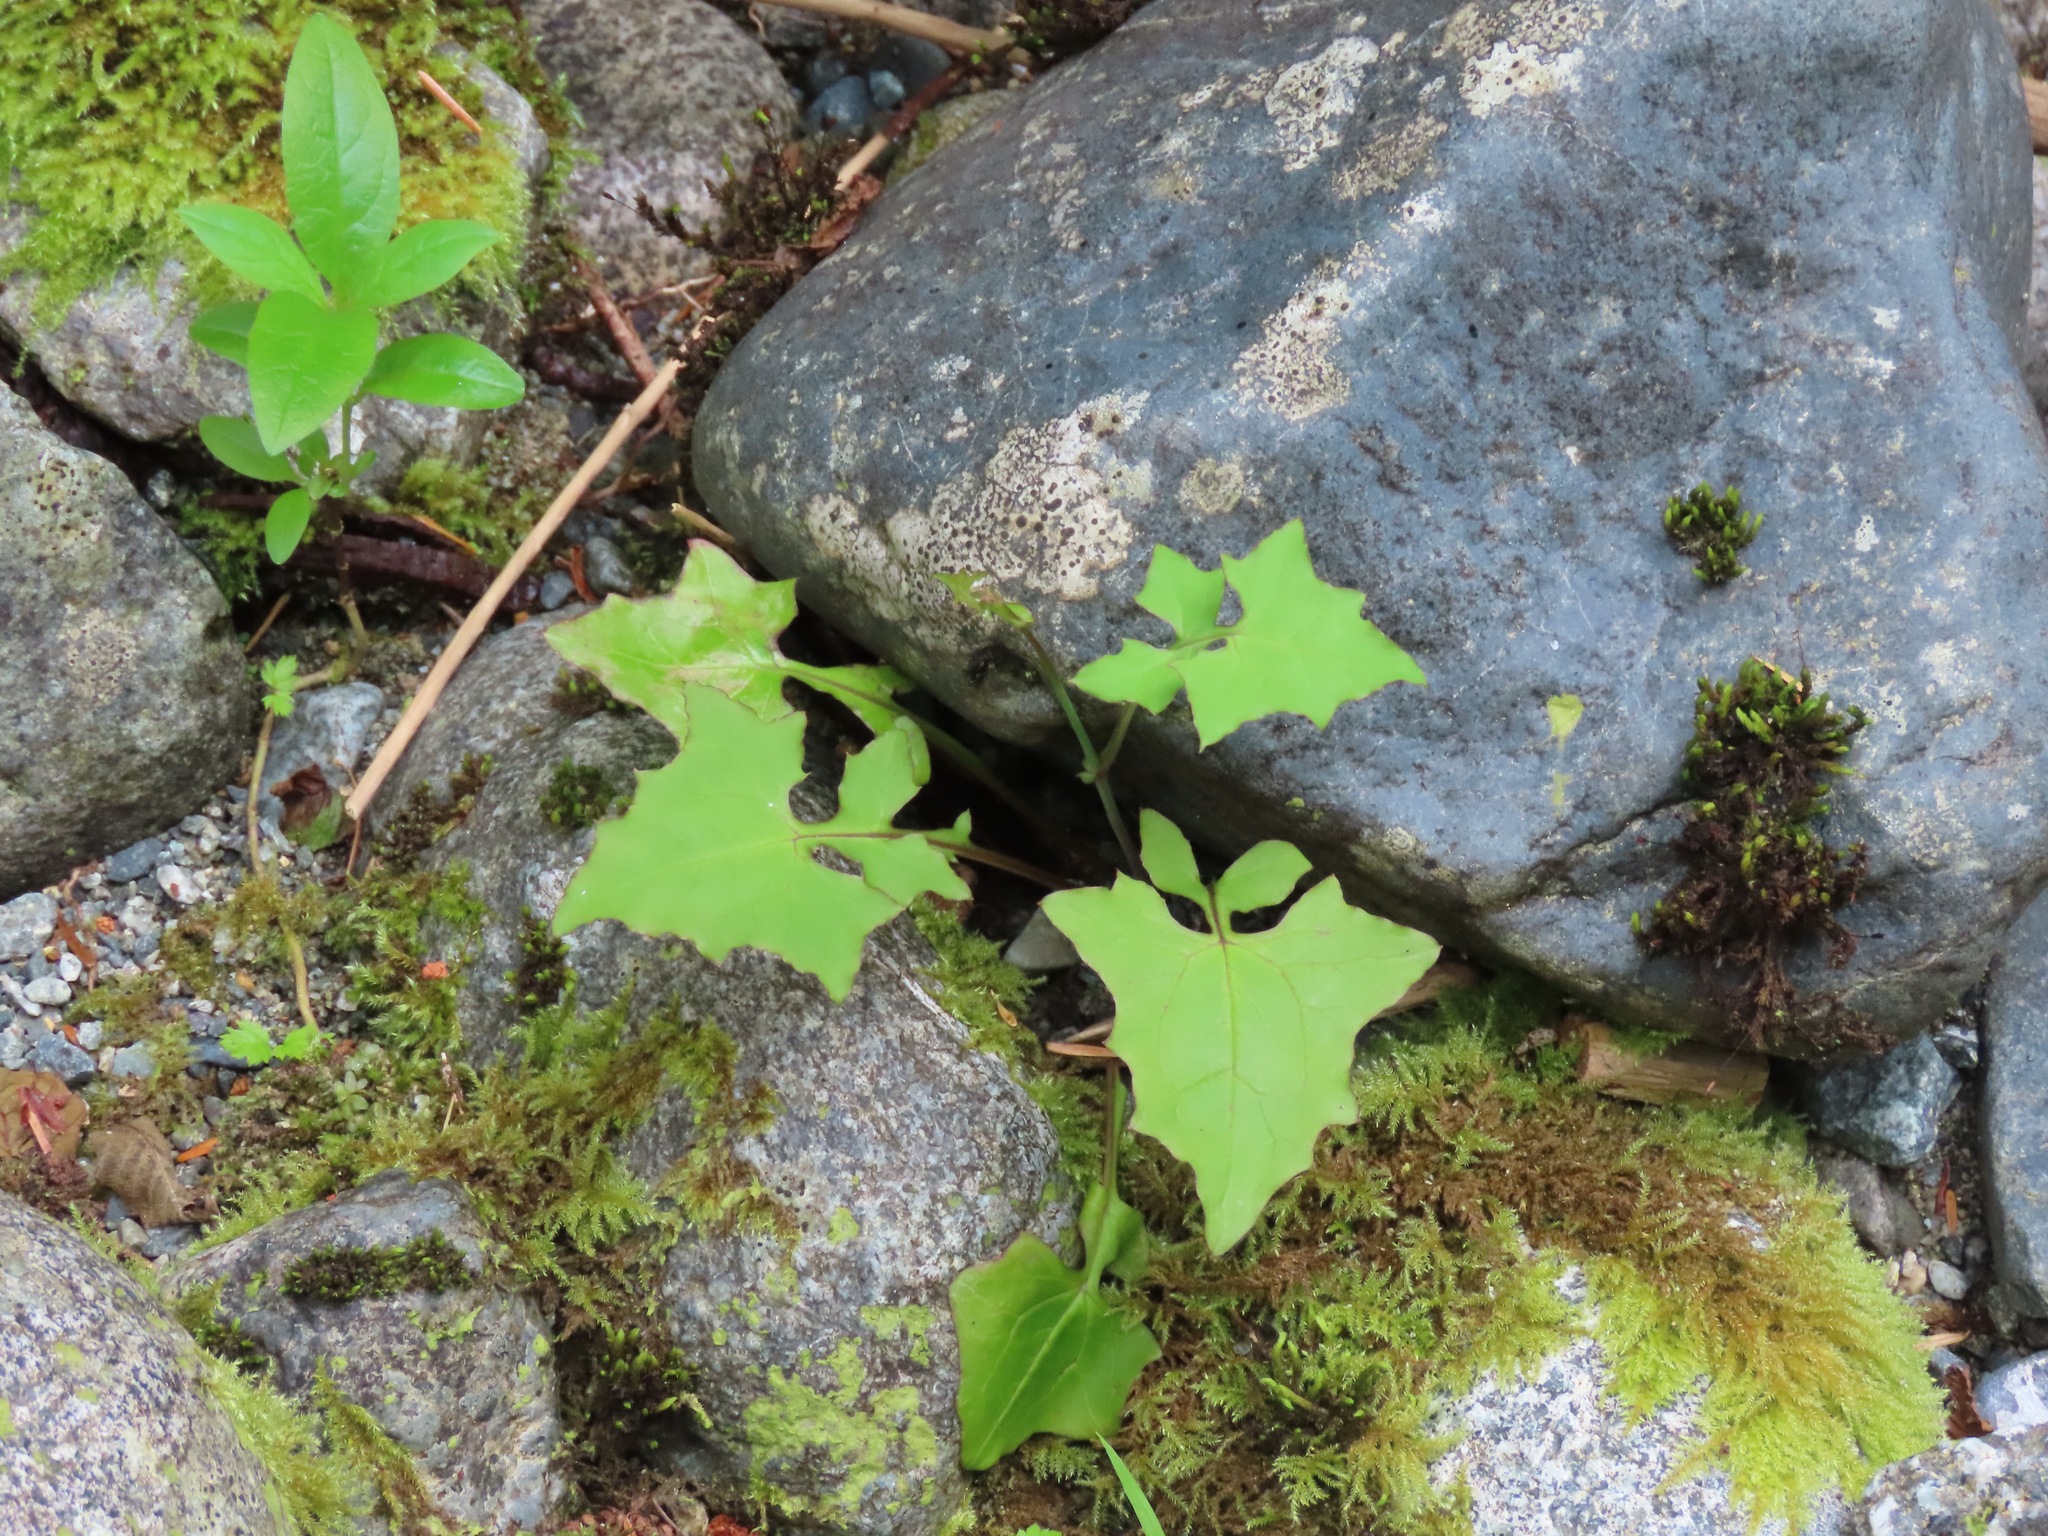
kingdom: Plantae
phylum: Tracheophyta
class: Magnoliopsida
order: Asterales
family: Asteraceae
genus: Mycelis
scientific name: Mycelis muralis
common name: Wall lettuce
